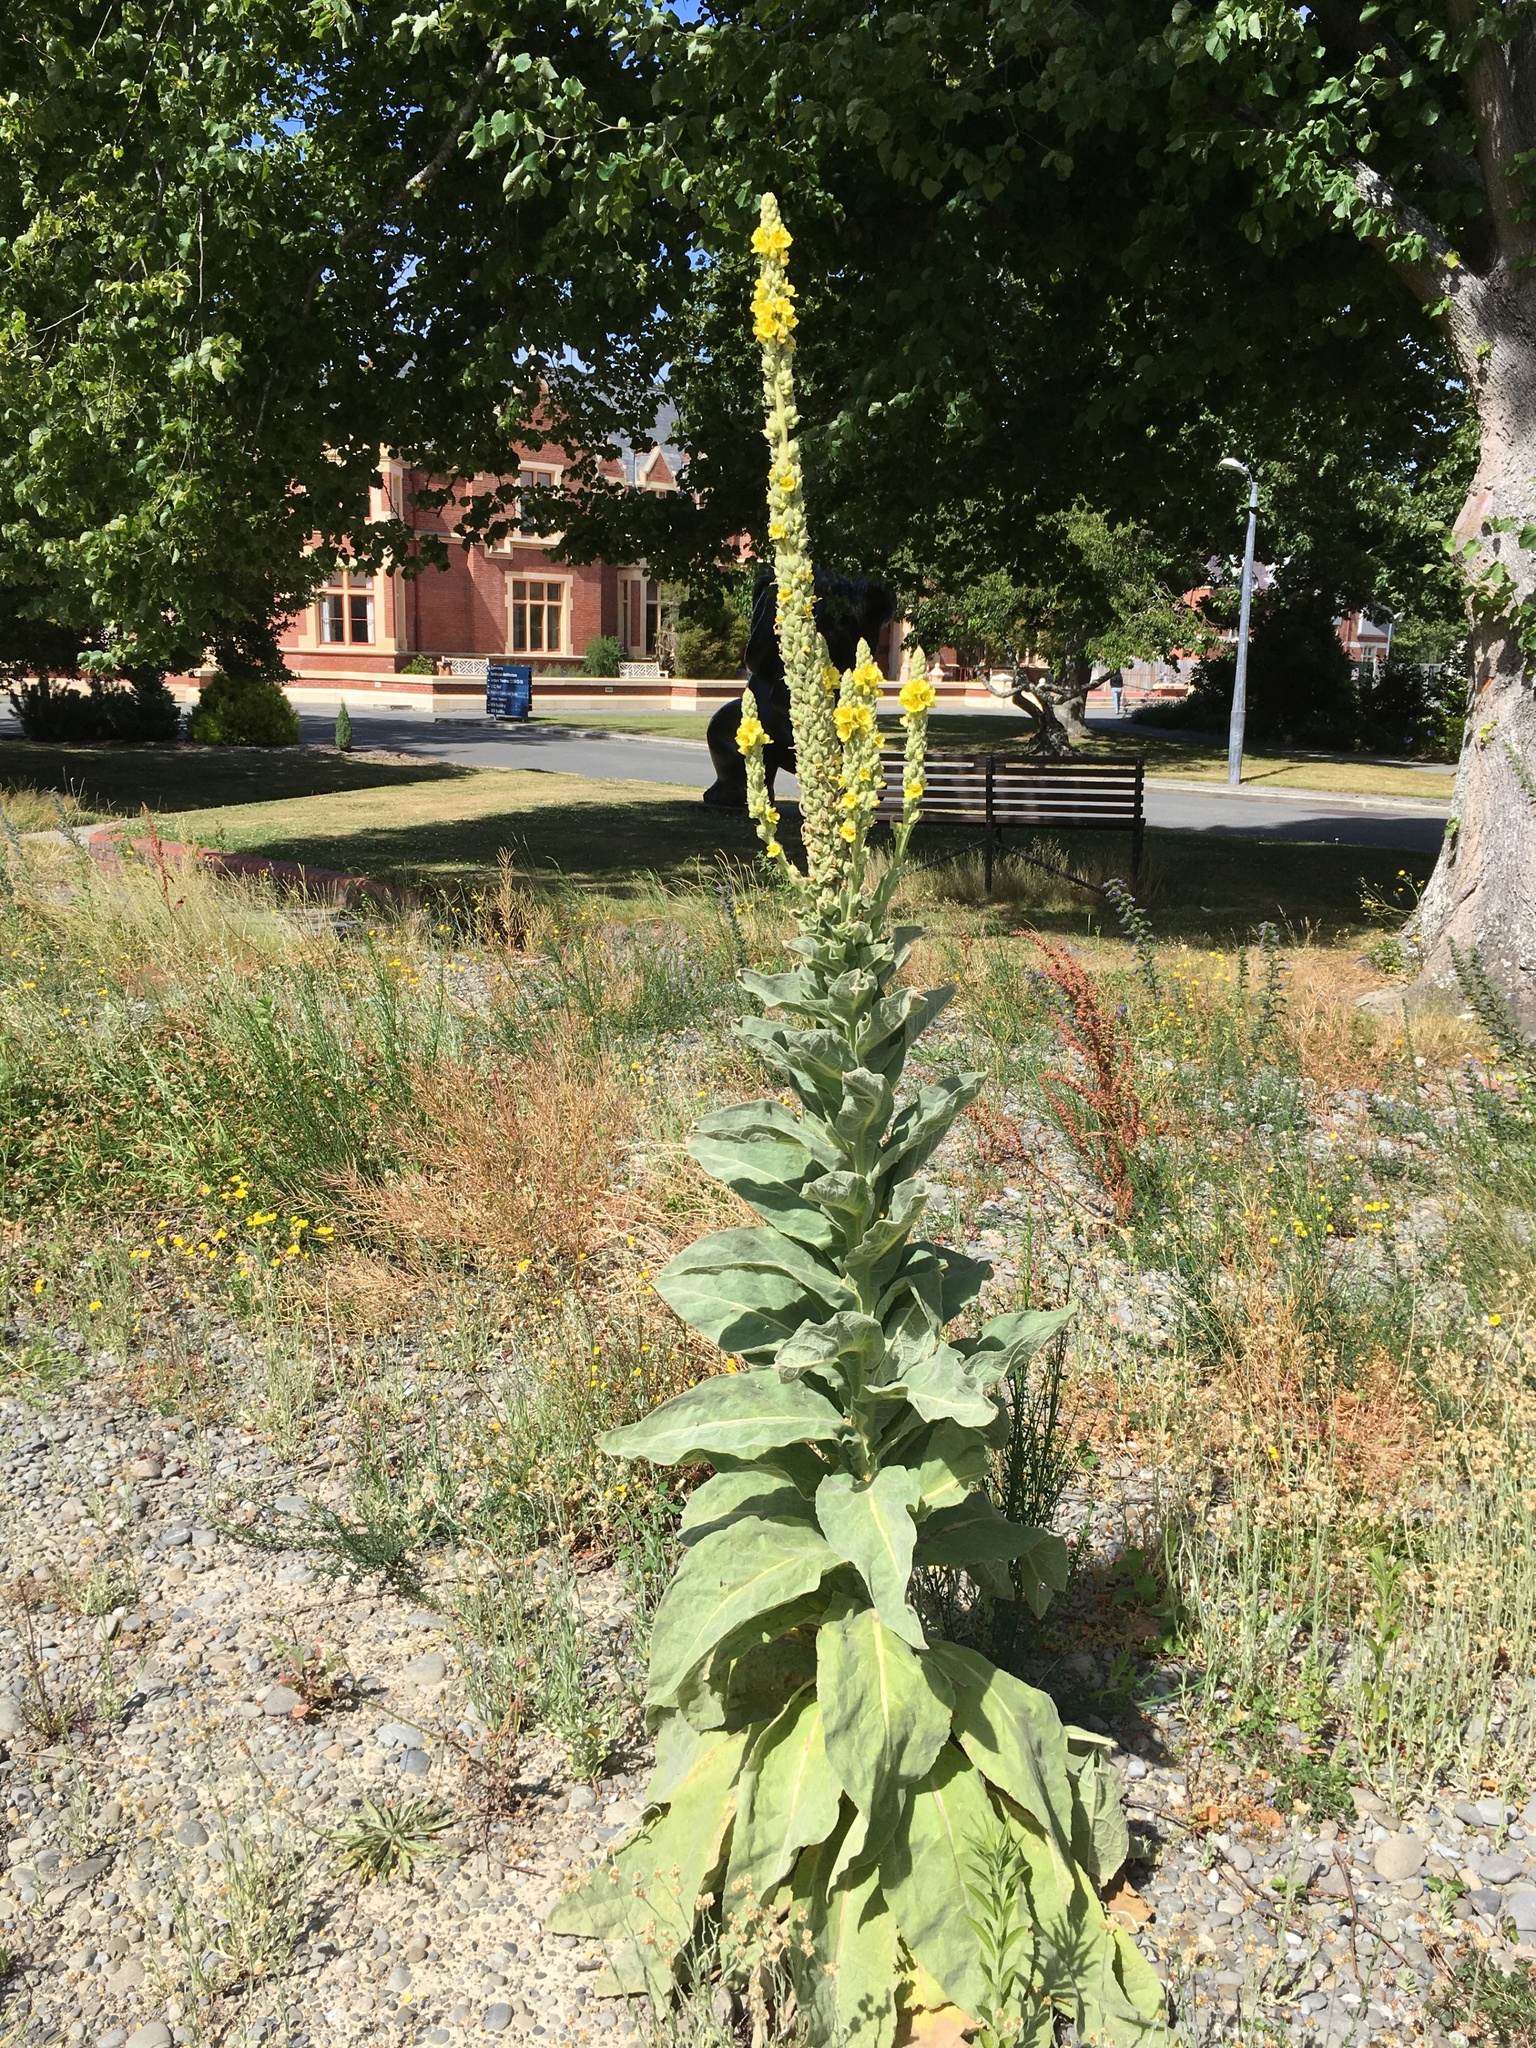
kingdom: Plantae
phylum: Tracheophyta
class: Magnoliopsida
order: Lamiales
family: Scrophulariaceae
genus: Verbascum
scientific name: Verbascum thapsus
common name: Common mullein
